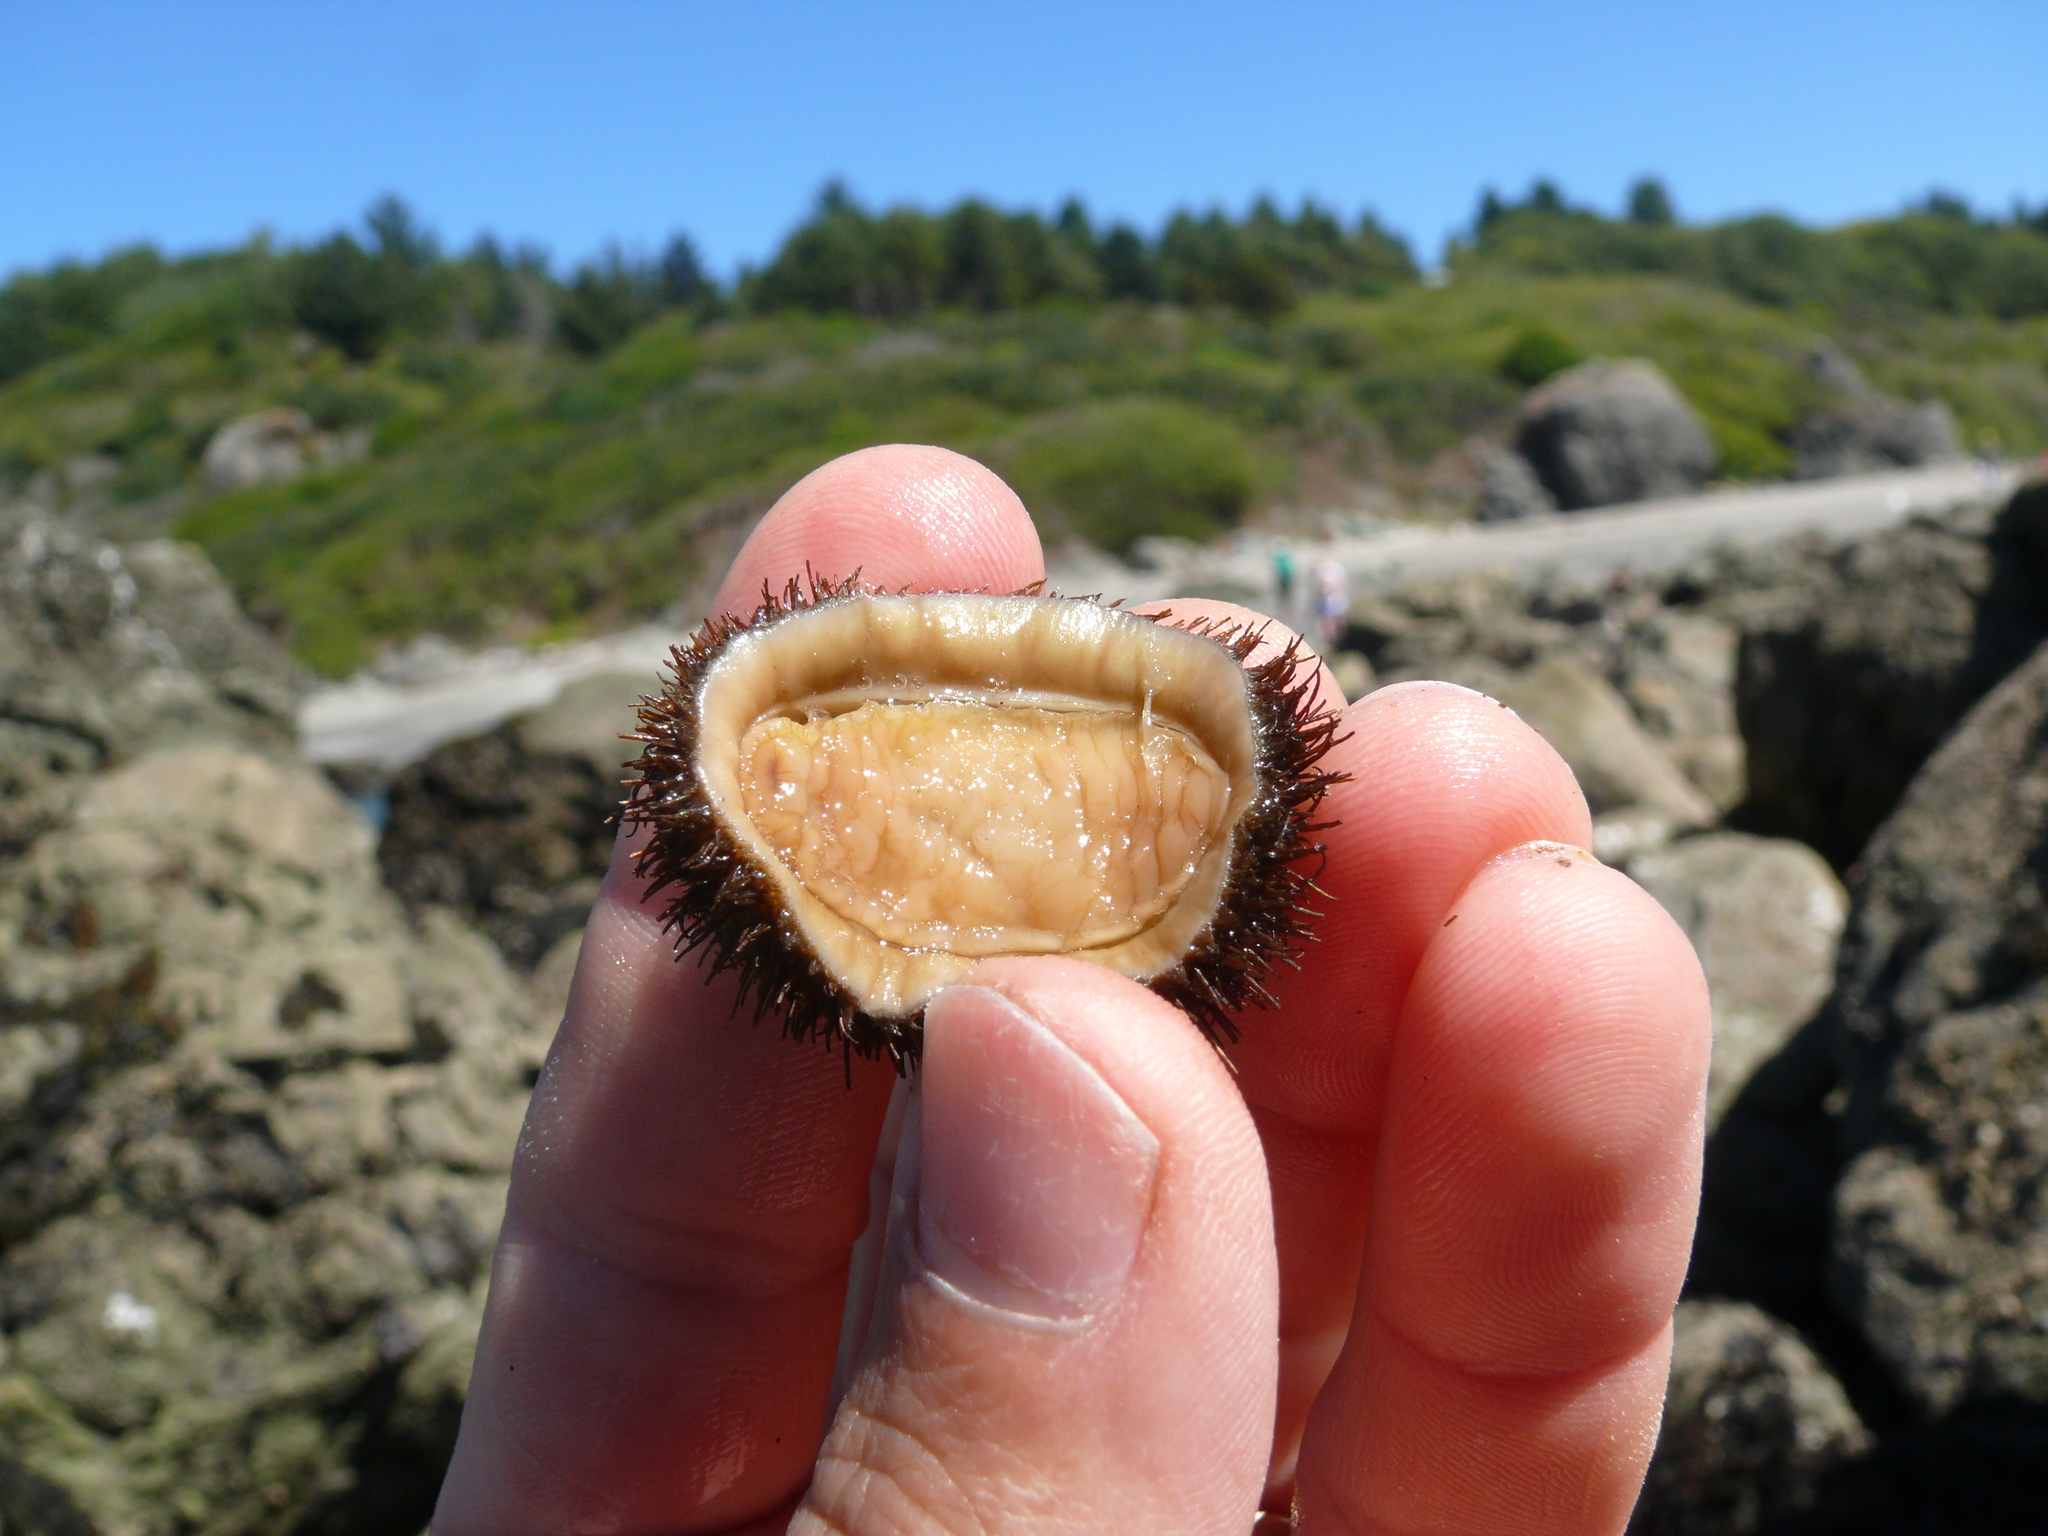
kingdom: Animalia
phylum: Mollusca
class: Polyplacophora
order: Chitonida
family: Mopaliidae
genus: Mopalia
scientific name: Mopalia muscosa
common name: Mossy chiton
